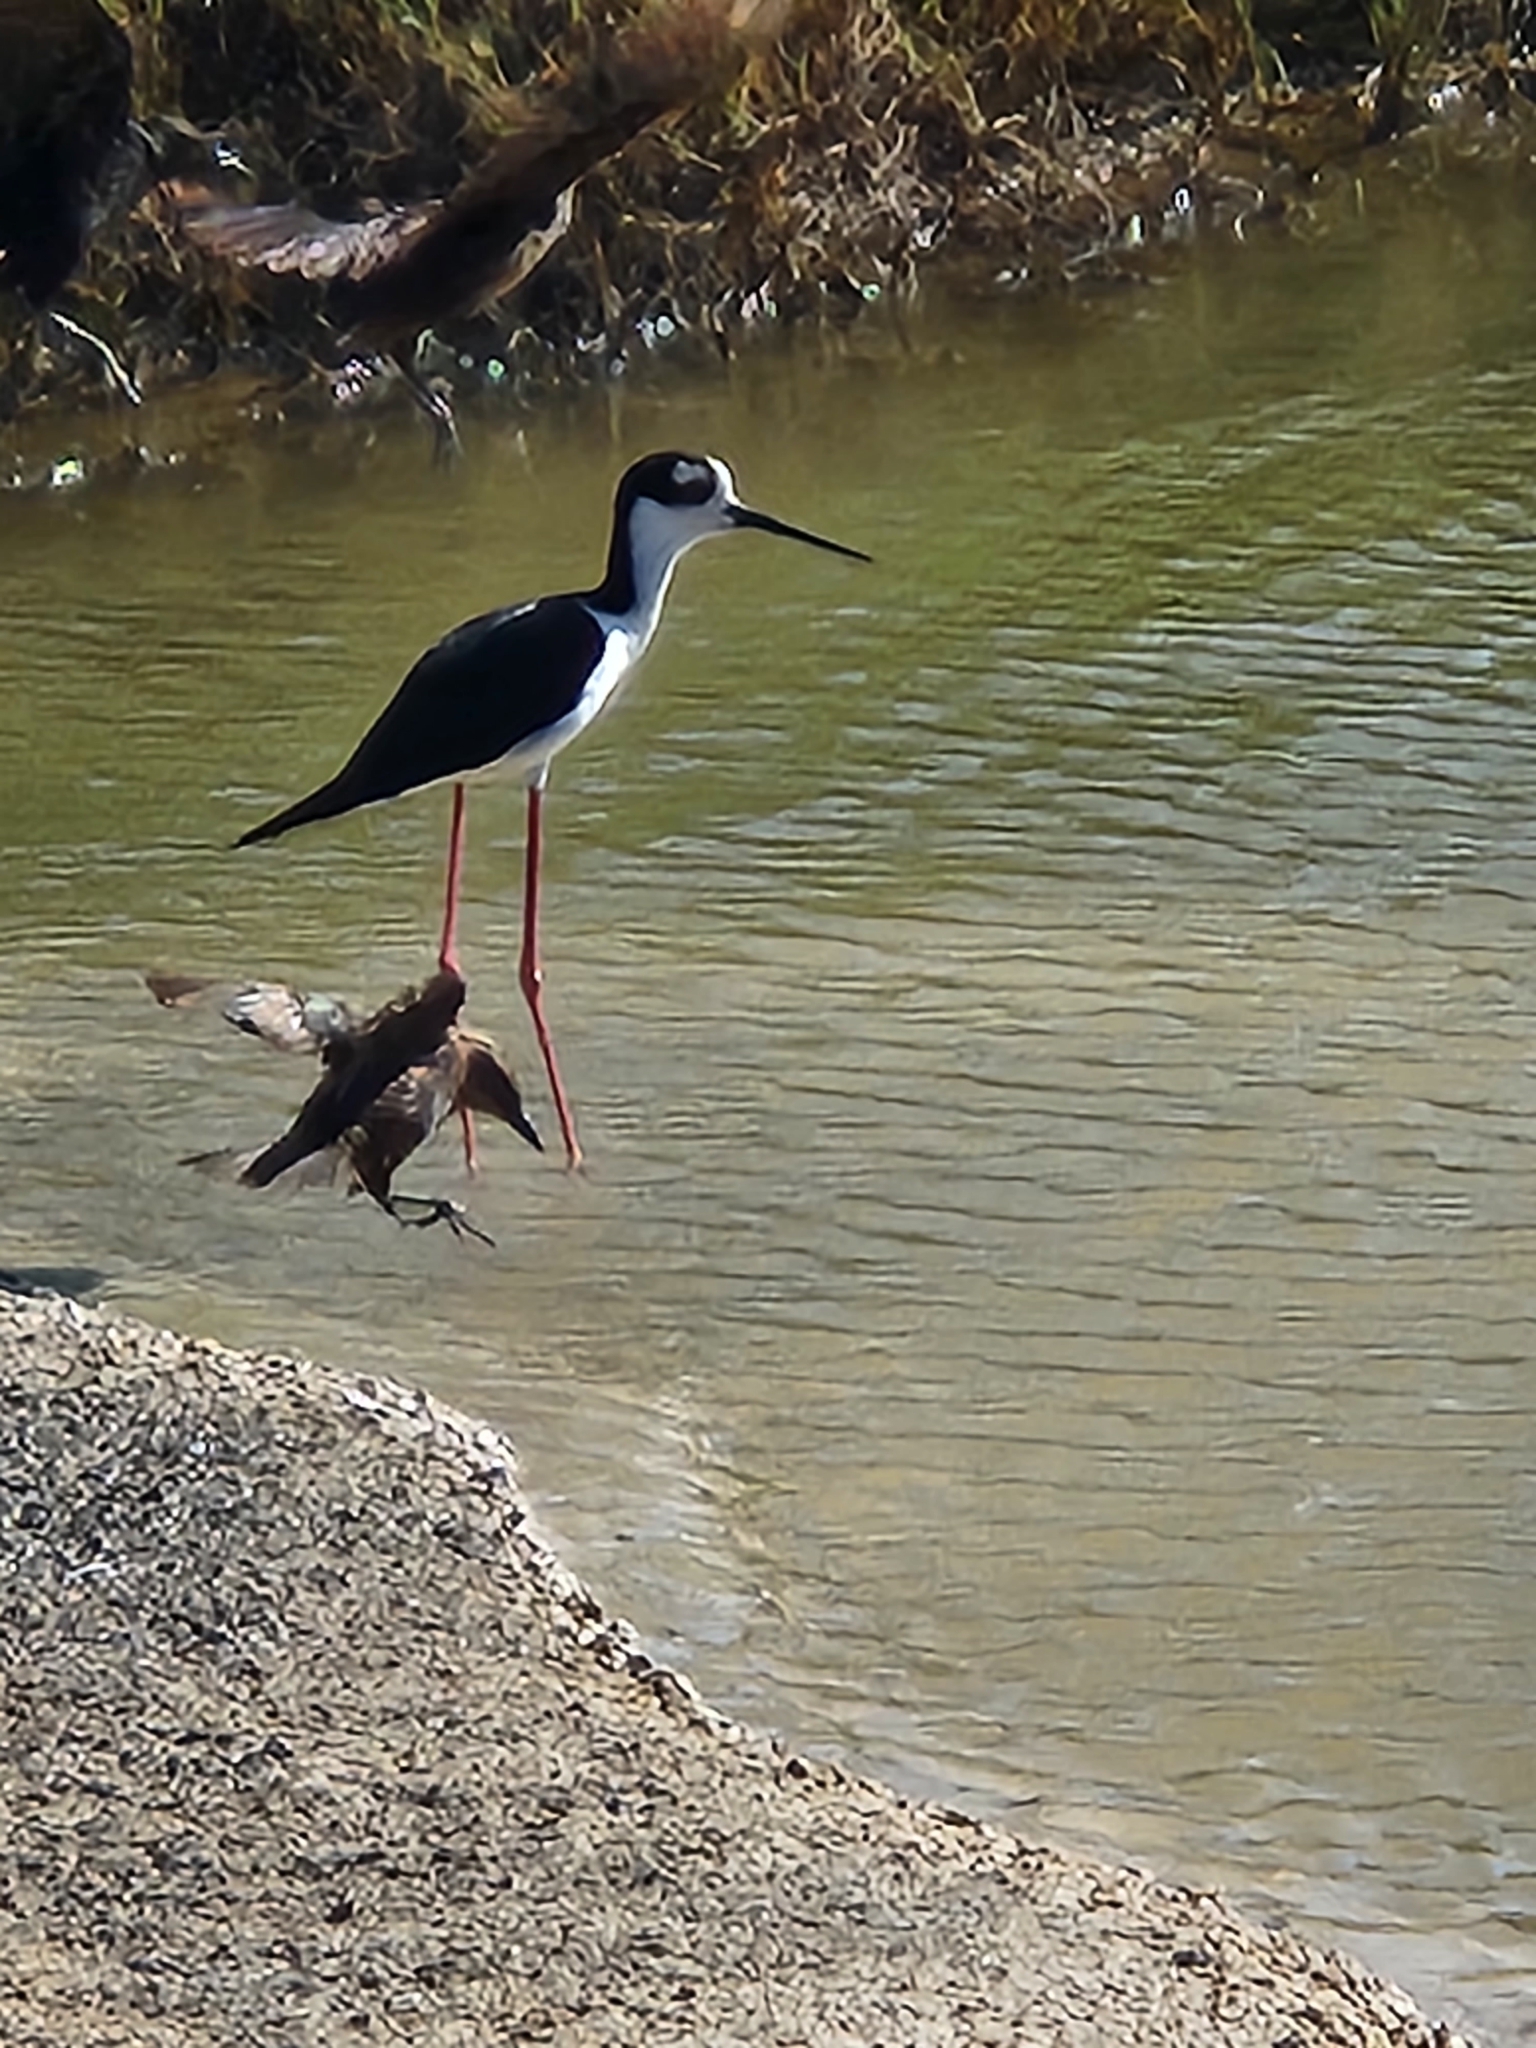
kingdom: Animalia
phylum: Chordata
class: Aves
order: Charadriiformes
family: Recurvirostridae
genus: Himantopus
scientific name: Himantopus mexicanus
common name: Black-necked stilt
